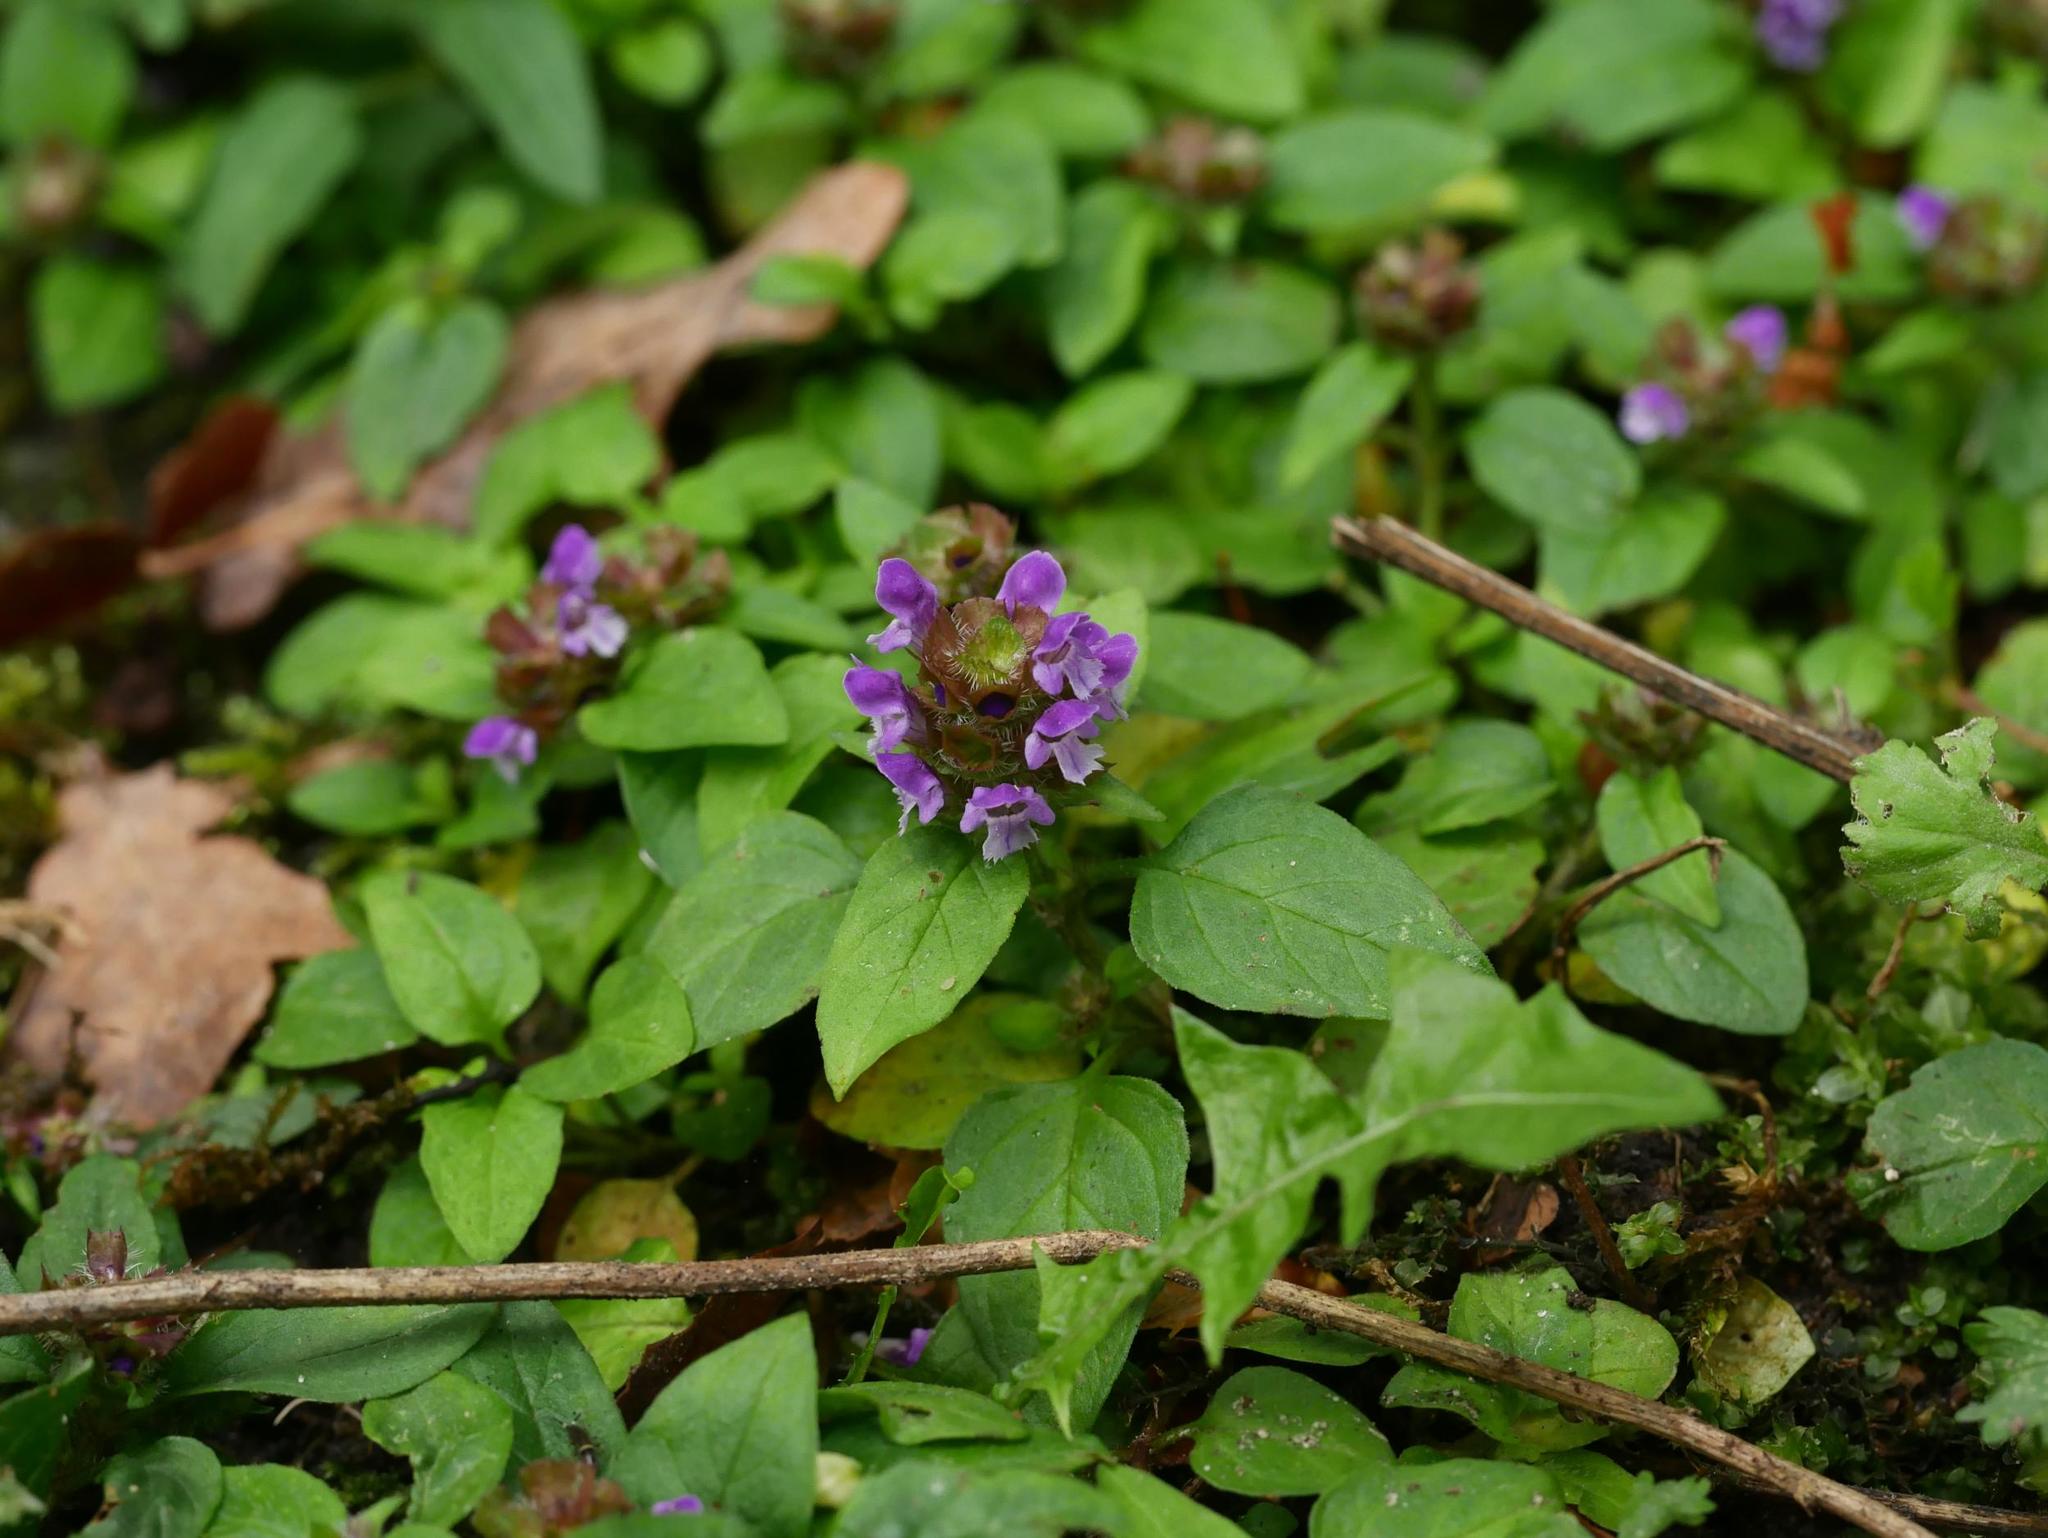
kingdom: Plantae
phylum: Tracheophyta
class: Magnoliopsida
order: Lamiales
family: Lamiaceae
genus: Prunella
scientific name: Prunella vulgaris
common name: Heal-all
